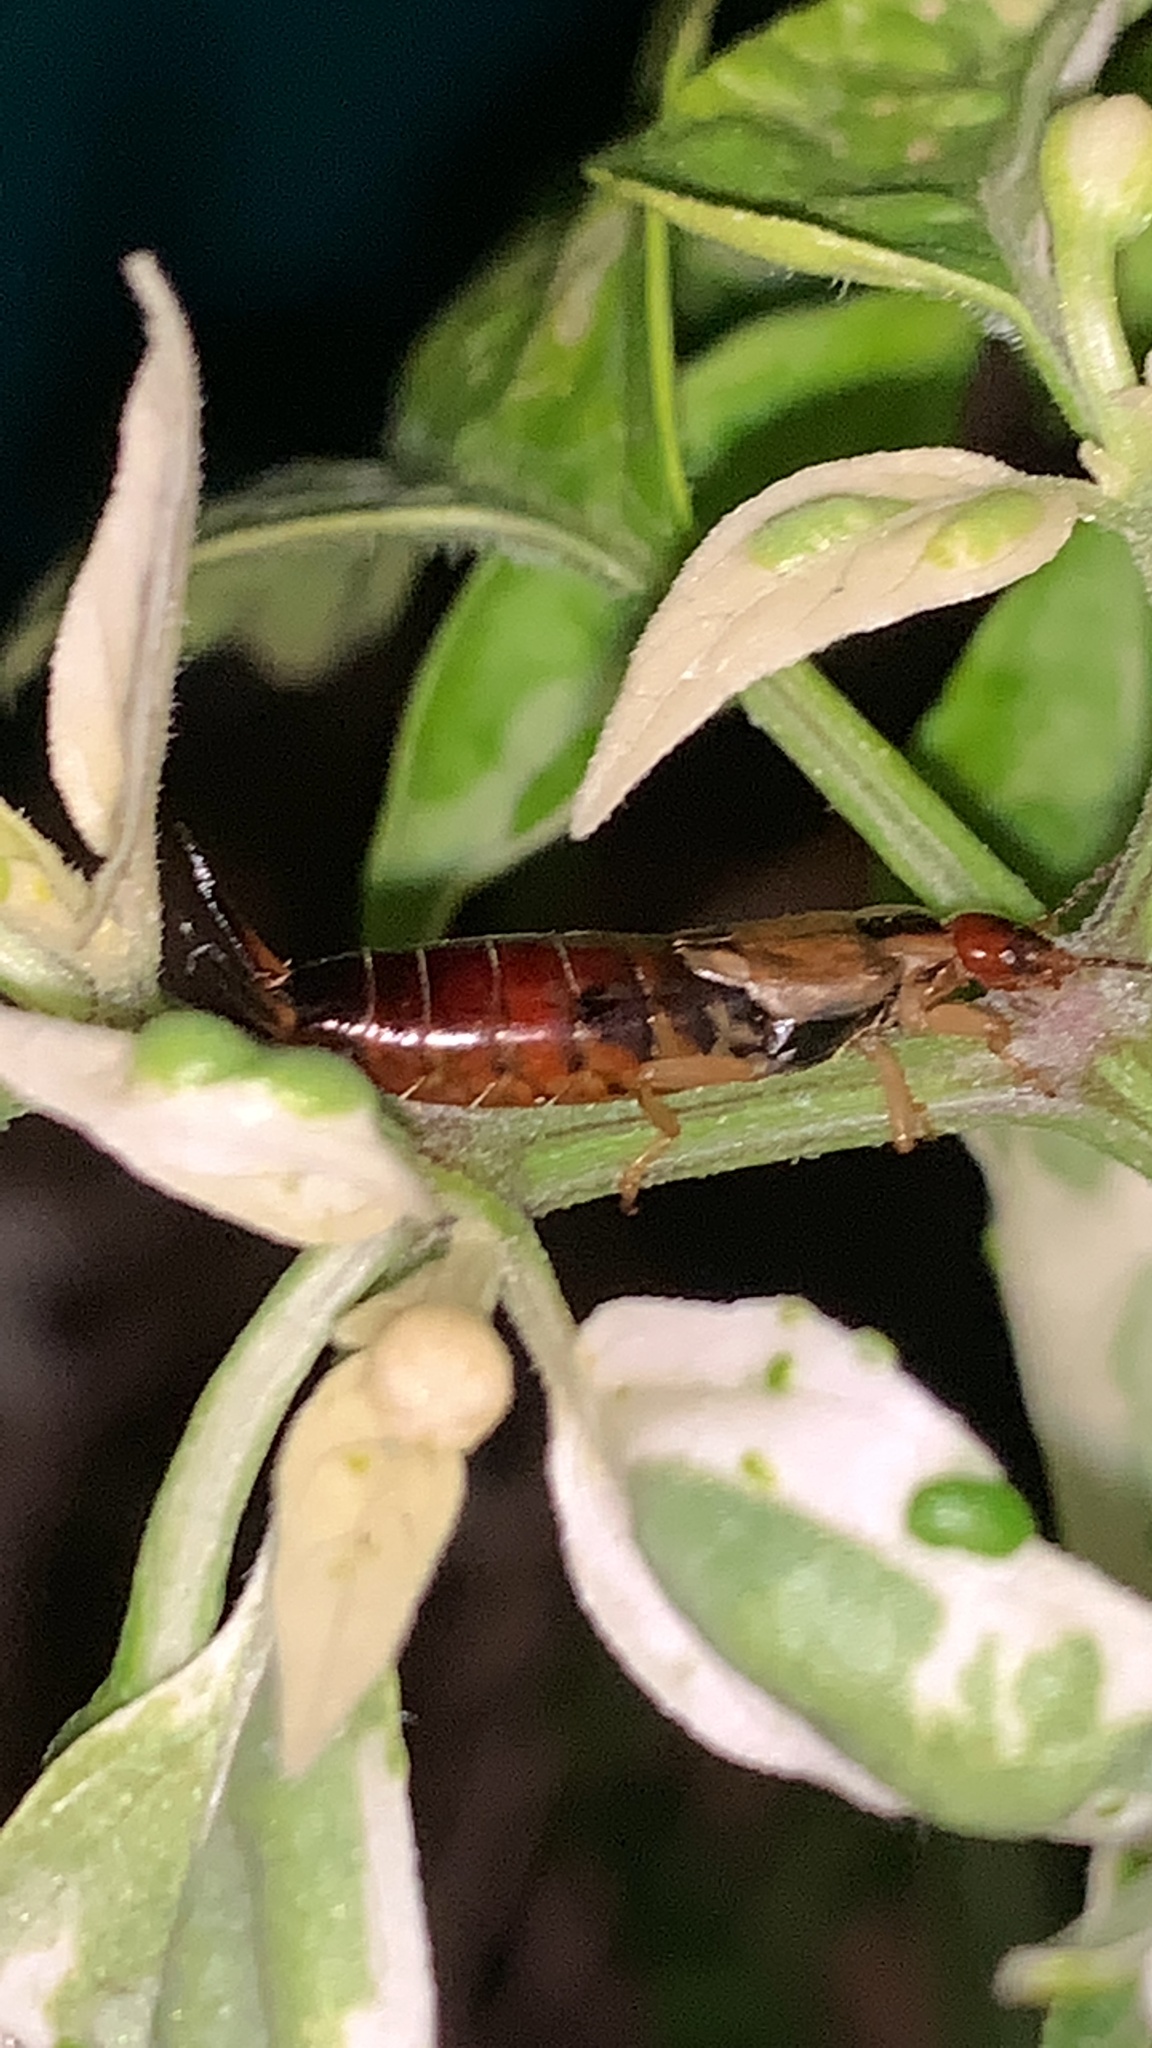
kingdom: Animalia
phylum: Arthropoda
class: Insecta
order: Dermaptera
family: Forficulidae
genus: Forficula
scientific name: Forficula
